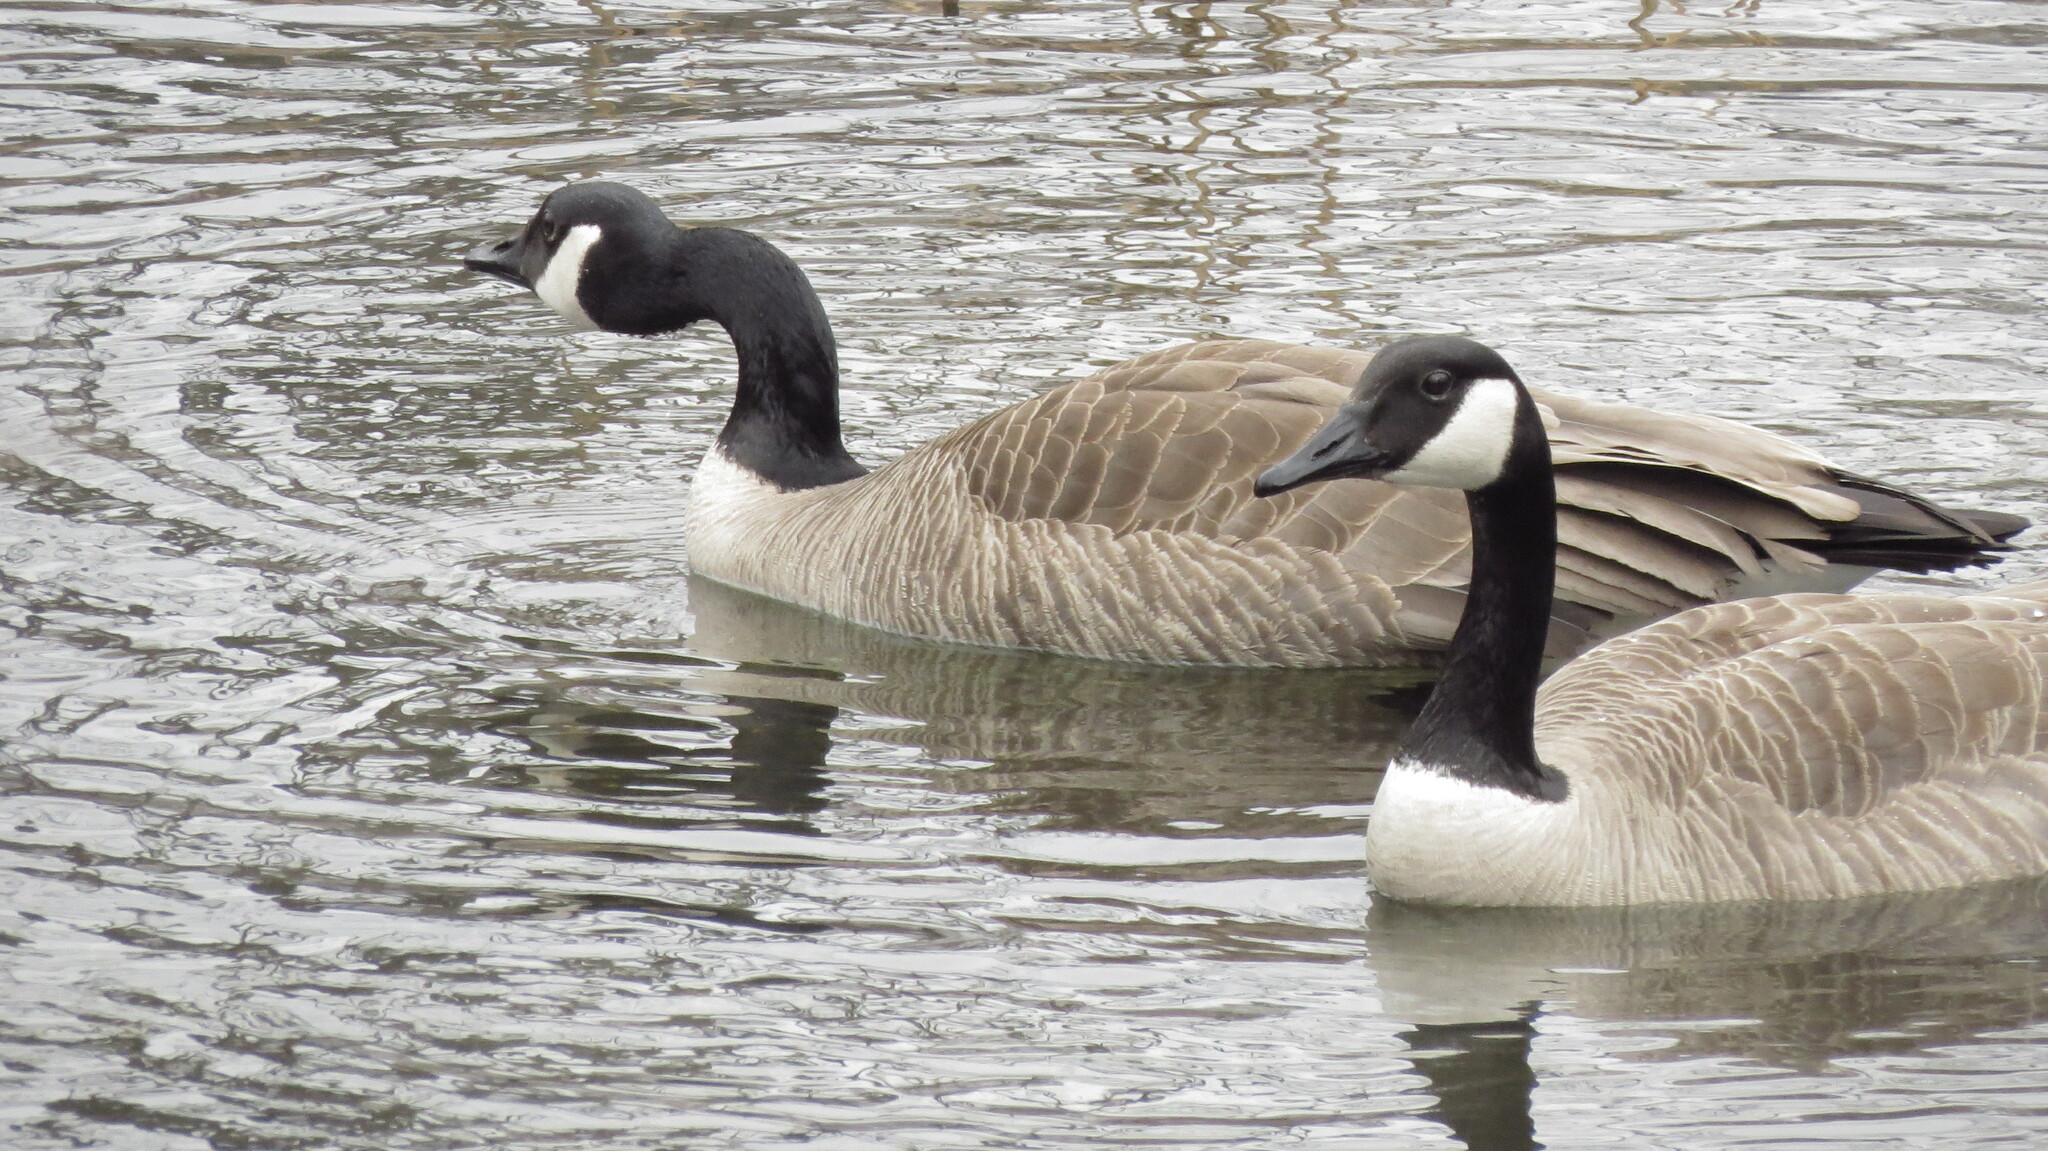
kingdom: Animalia
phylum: Chordata
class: Aves
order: Anseriformes
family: Anatidae
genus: Branta
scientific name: Branta canadensis
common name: Canada goose
